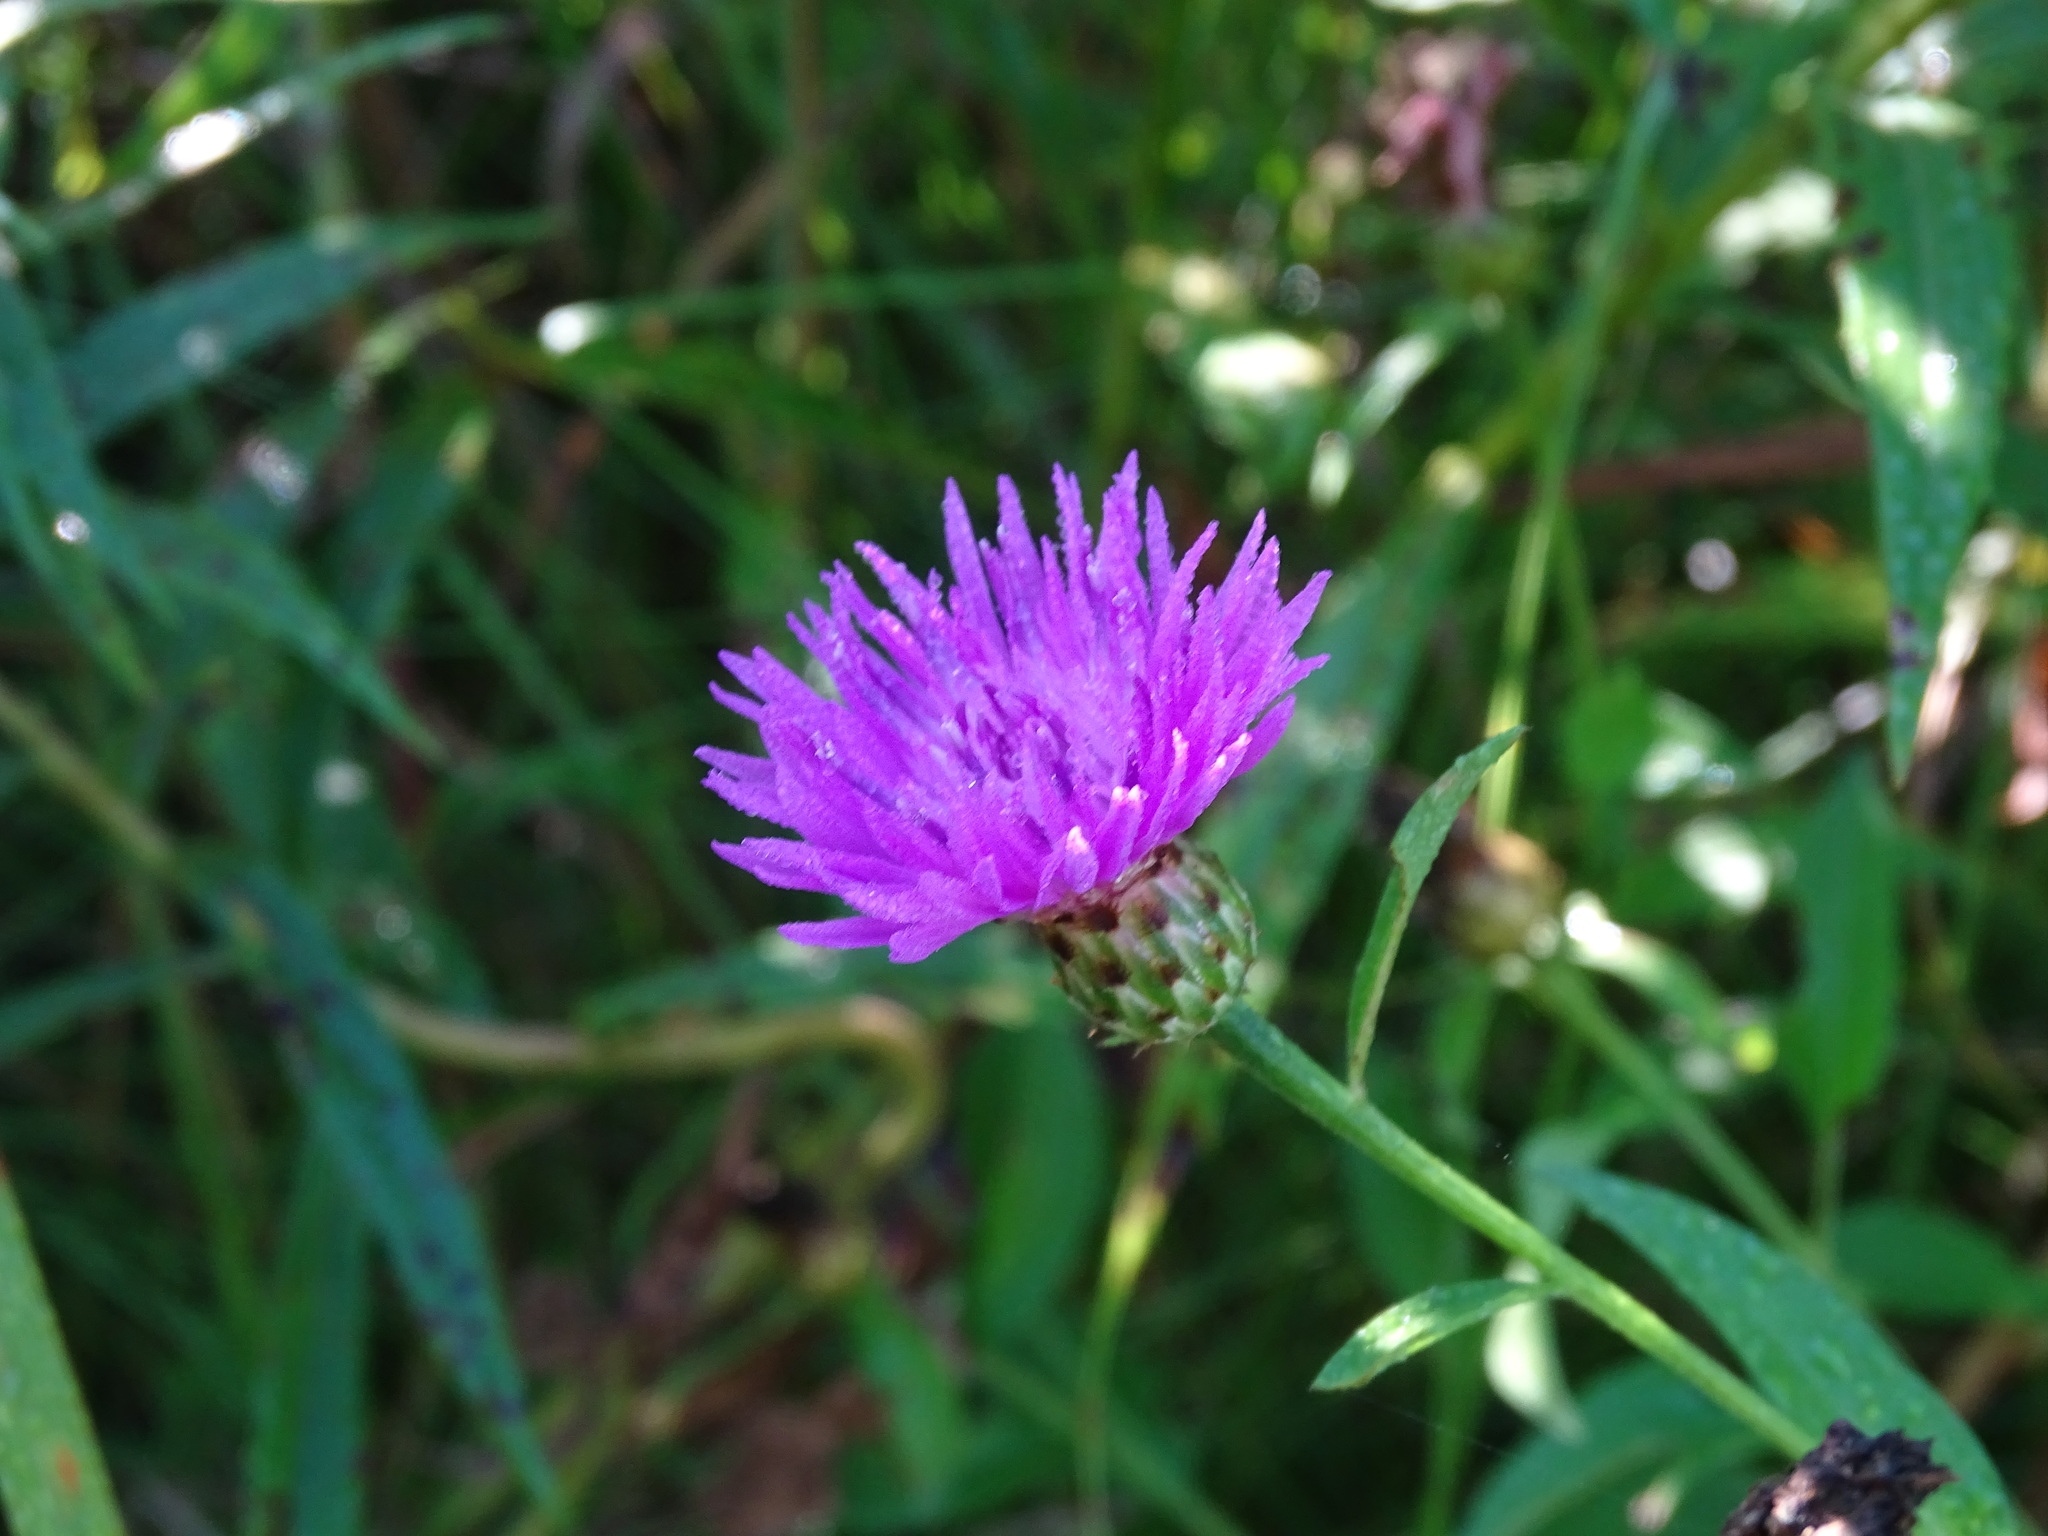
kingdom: Plantae
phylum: Tracheophyta
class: Magnoliopsida
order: Asterales
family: Asteraceae
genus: Centaurea
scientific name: Centaurea nigrescens
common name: Tyrol knapweed
